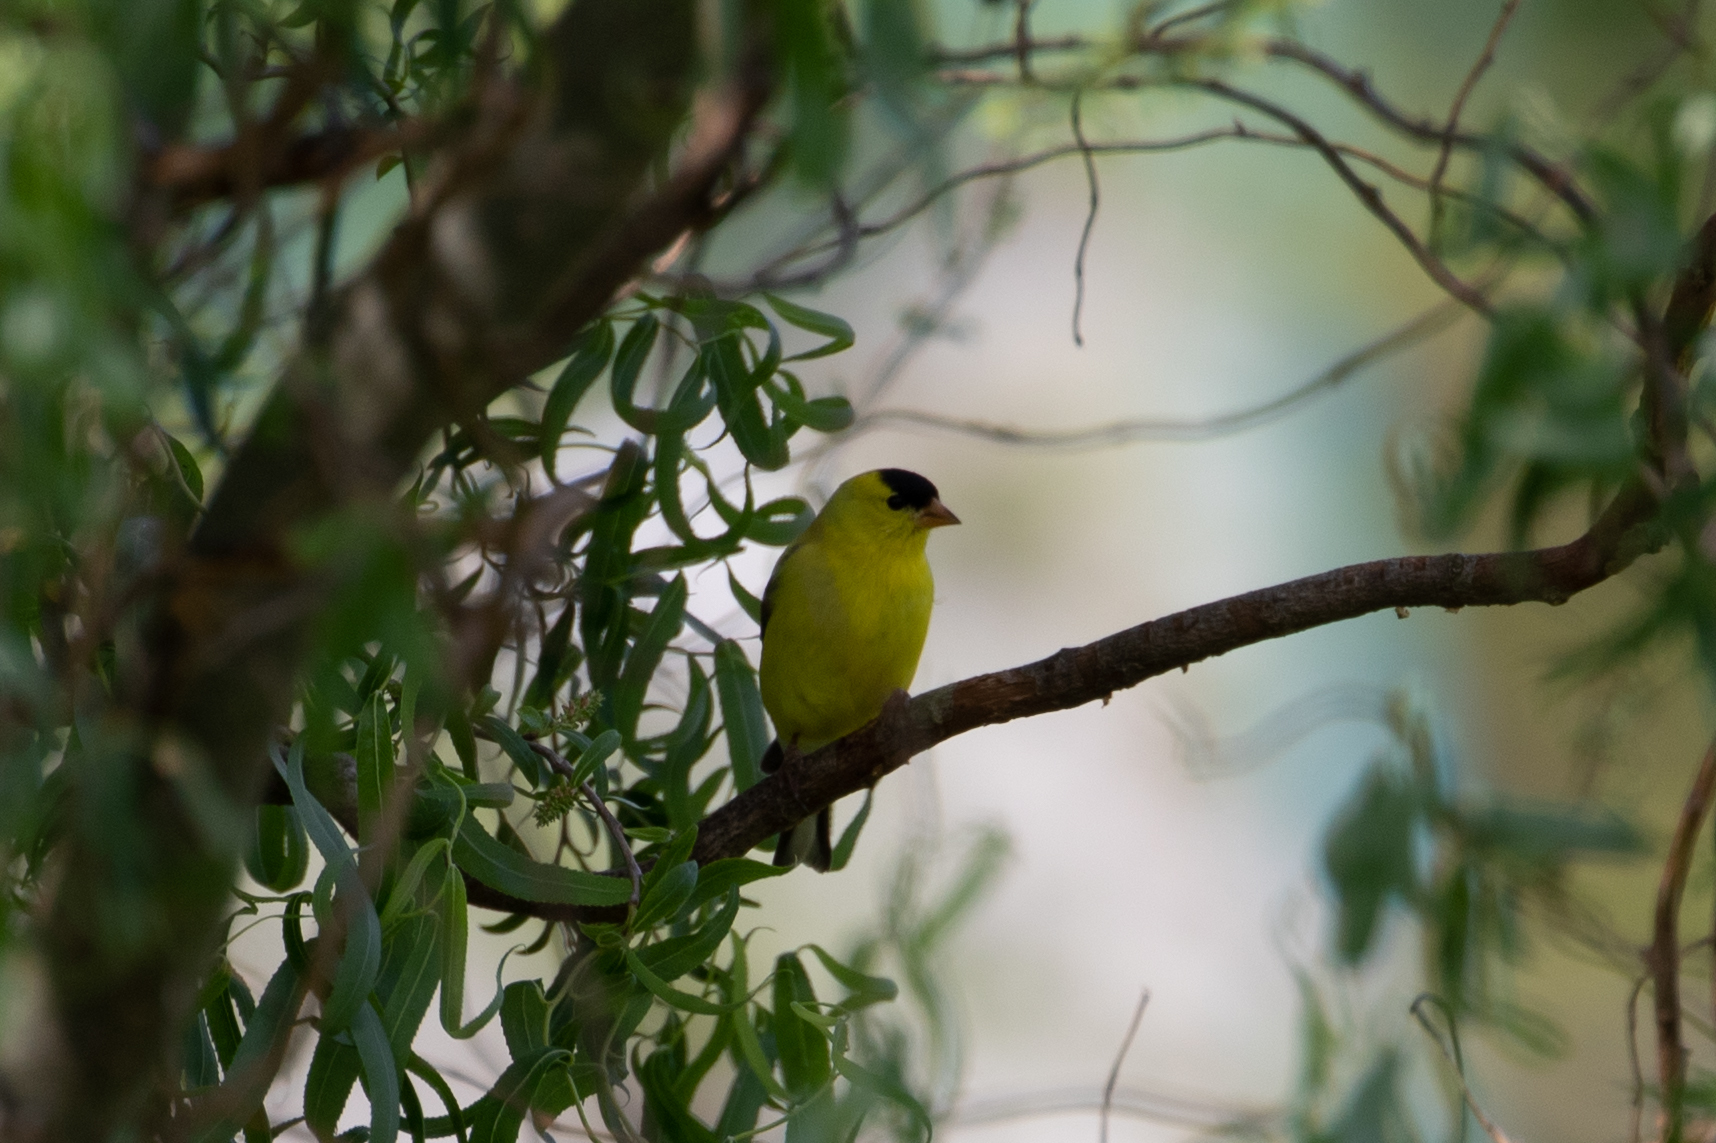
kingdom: Animalia
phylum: Chordata
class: Aves
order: Passeriformes
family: Fringillidae
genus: Spinus
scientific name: Spinus tristis
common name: American goldfinch
